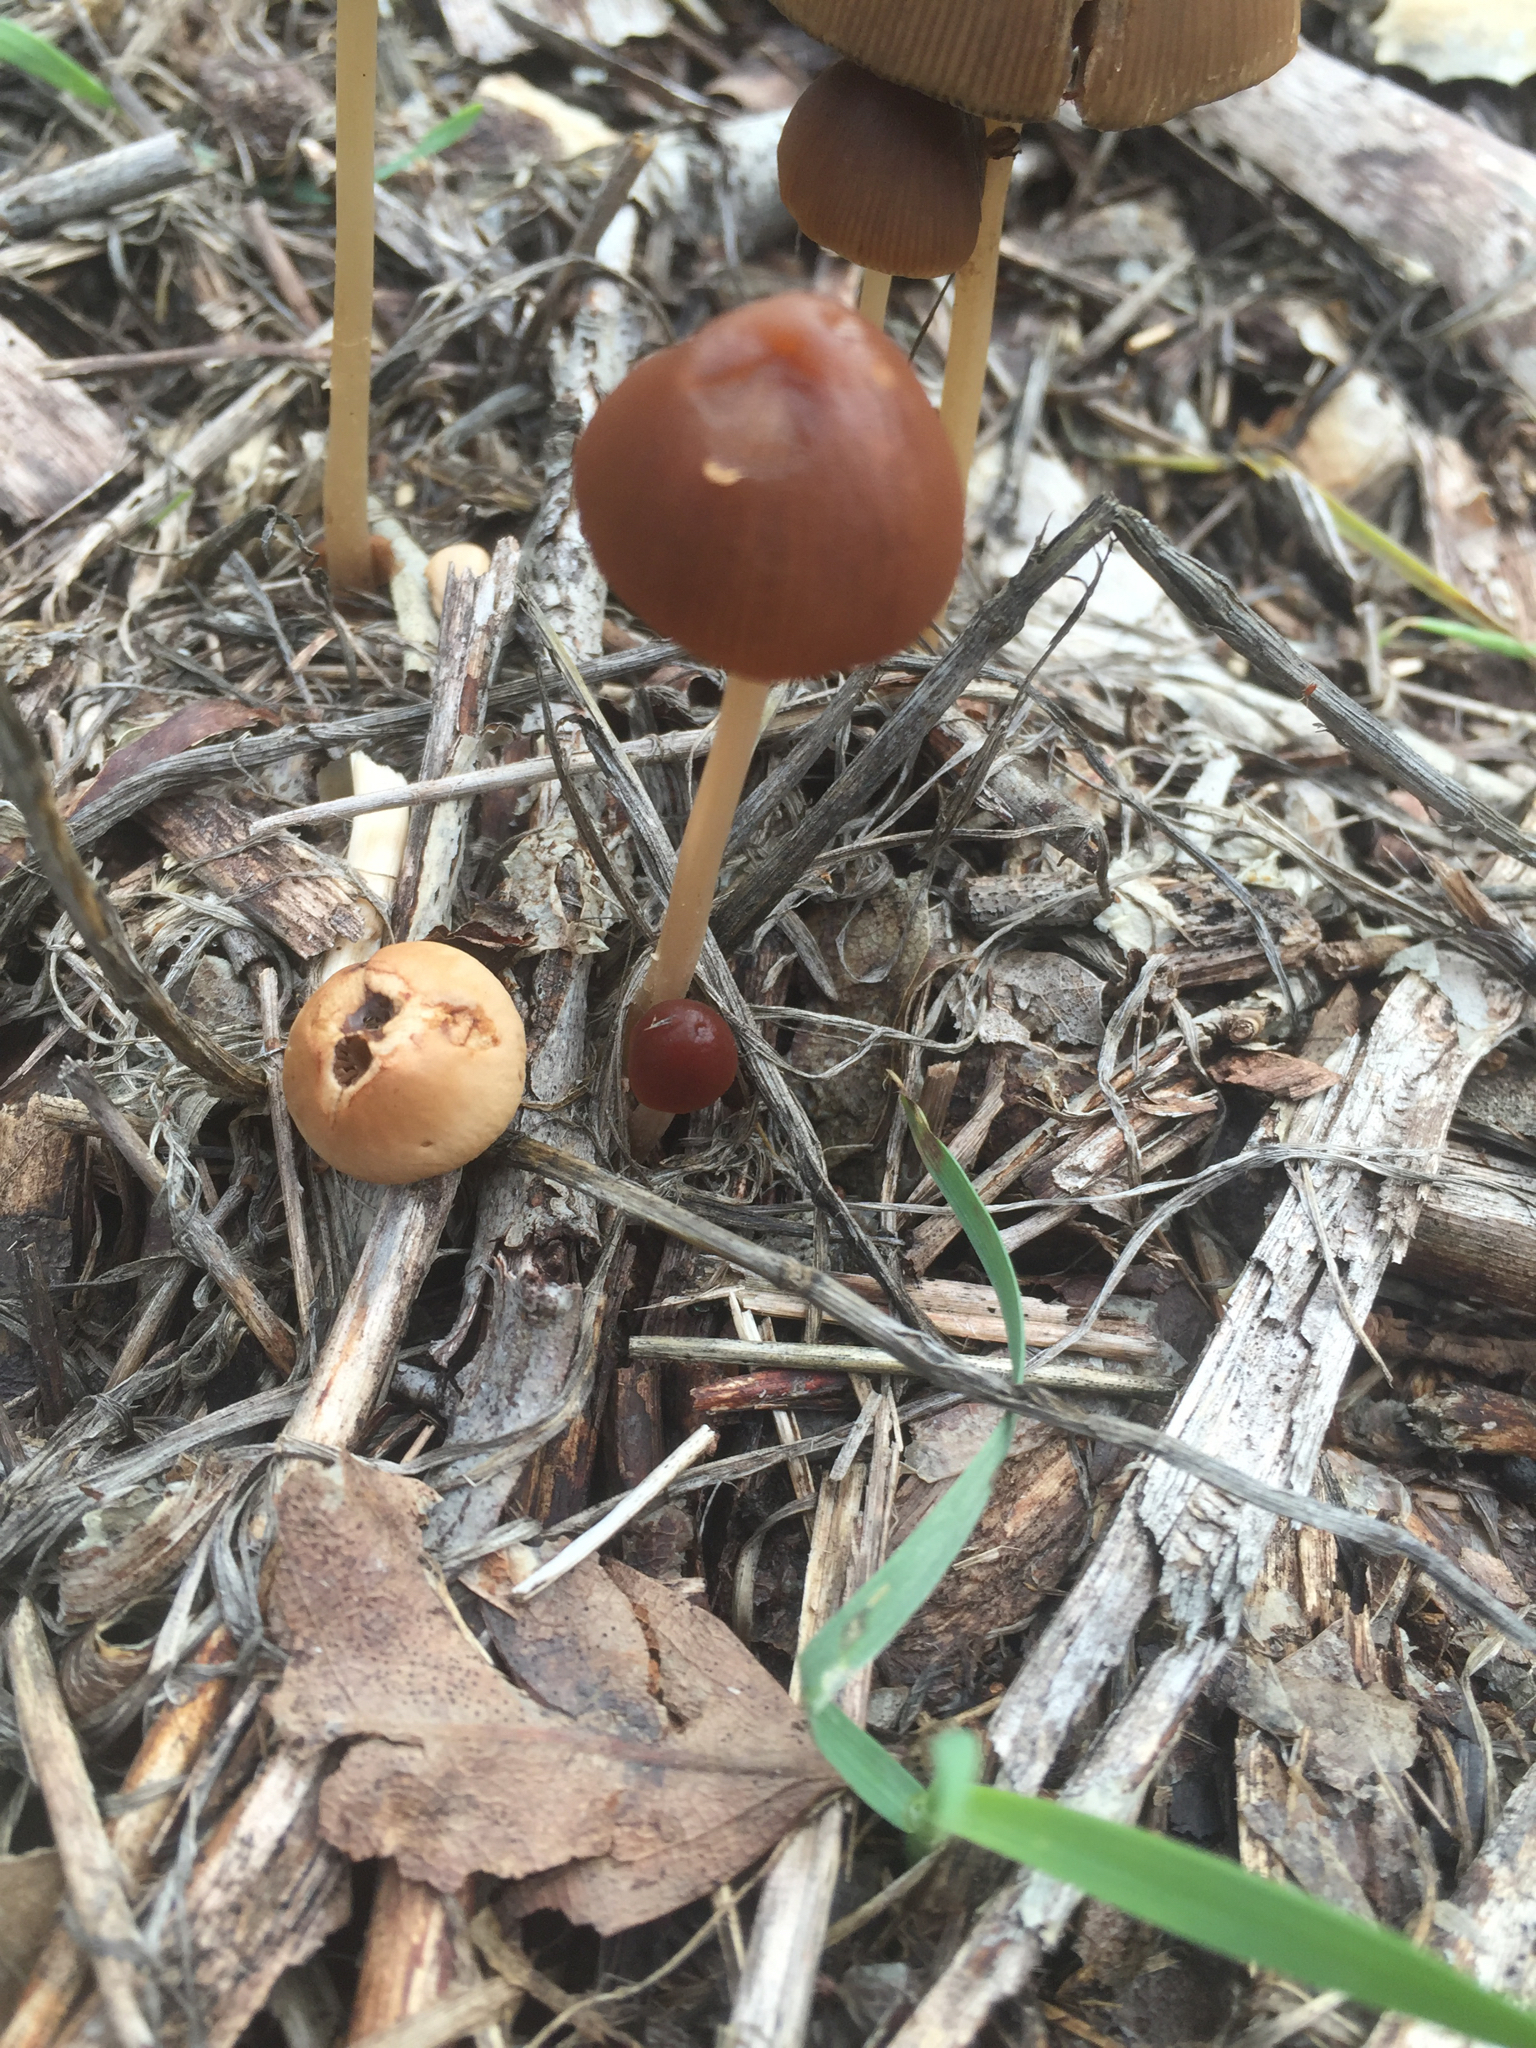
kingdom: Fungi
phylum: Basidiomycota
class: Agaricomycetes
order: Agaricales
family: Psathyrellaceae
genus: Psathyrella
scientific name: Psathyrella corrugis
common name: Red edge brittlestem
